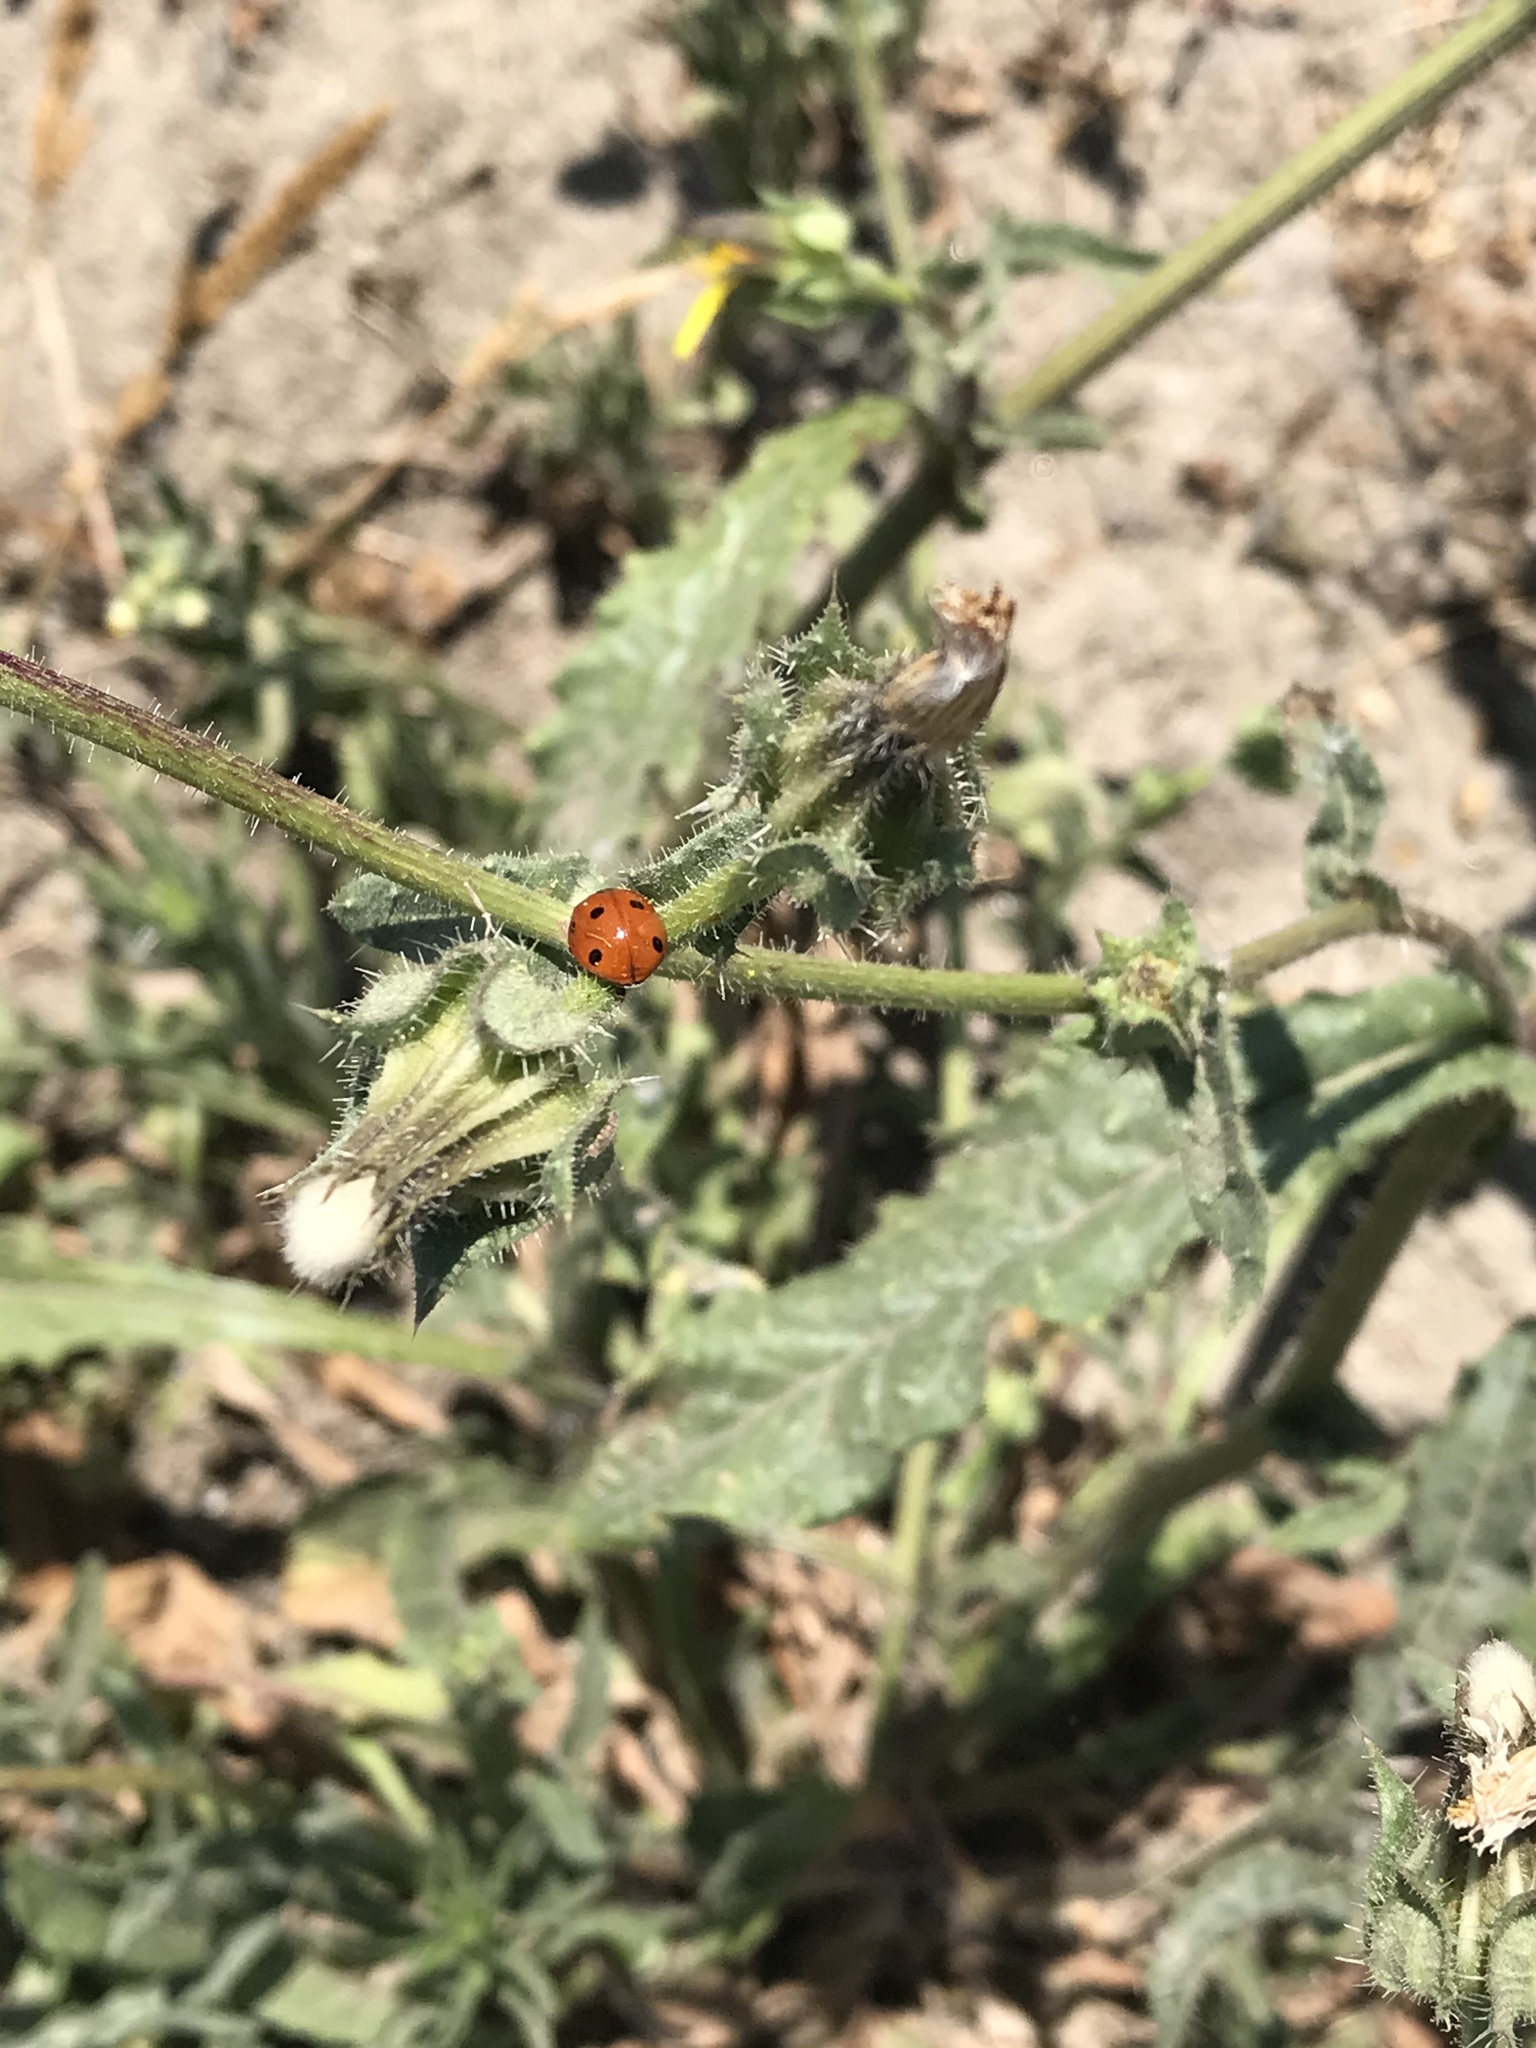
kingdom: Animalia
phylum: Arthropoda
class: Insecta
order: Coleoptera
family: Coccinellidae
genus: Coccinella
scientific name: Coccinella septempunctata
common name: Sevenspotted lady beetle
